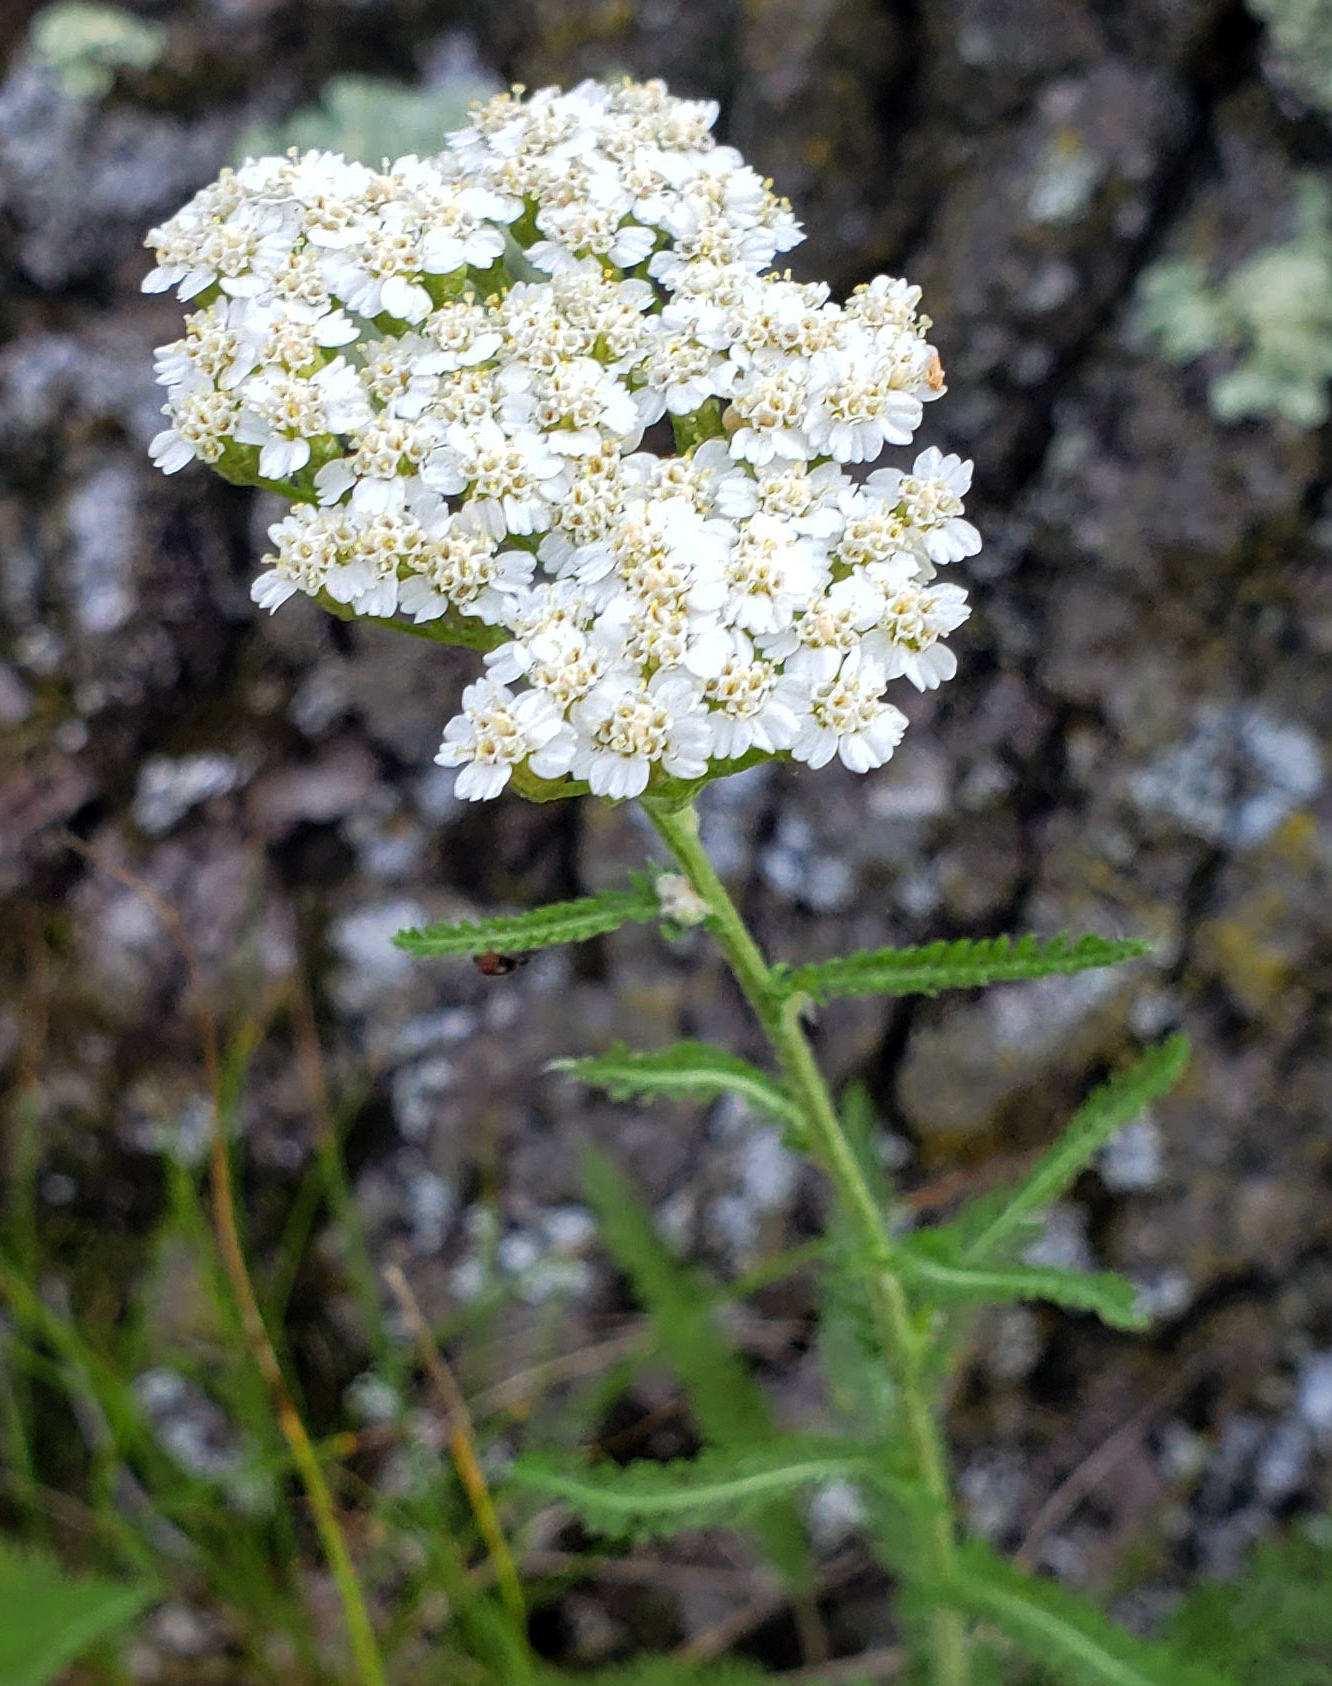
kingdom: Plantae
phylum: Tracheophyta
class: Magnoliopsida
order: Asterales
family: Asteraceae
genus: Achillea
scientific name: Achillea millefolium
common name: Yarrow
